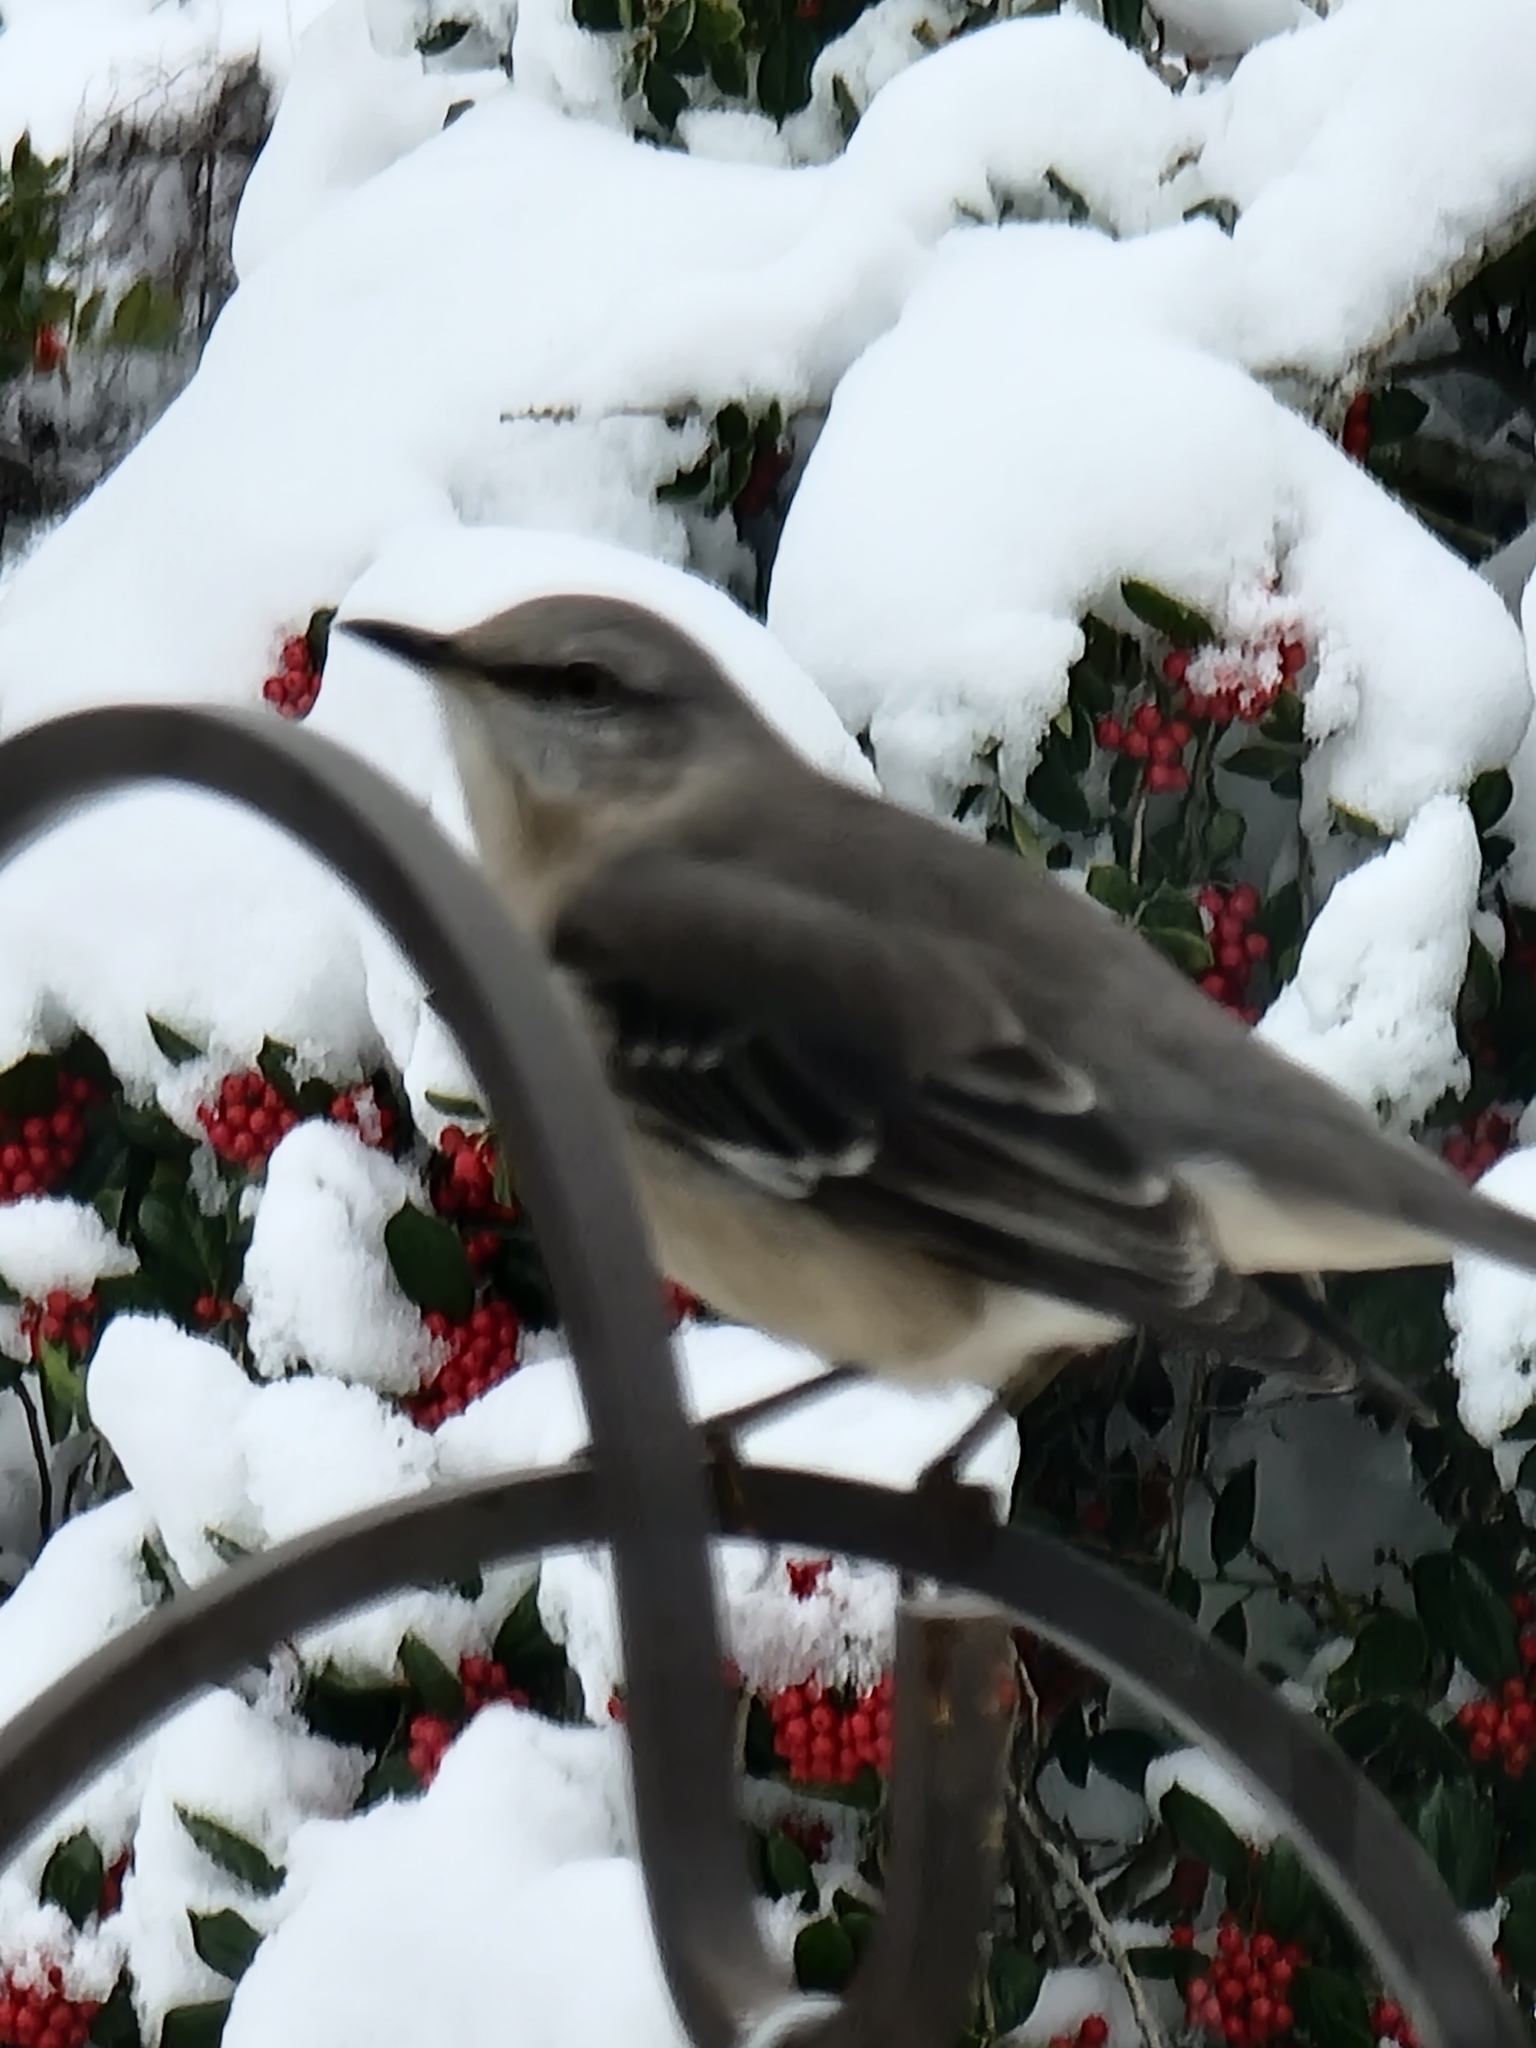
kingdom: Animalia
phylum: Chordata
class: Aves
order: Passeriformes
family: Mimidae
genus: Mimus
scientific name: Mimus polyglottos
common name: Northern mockingbird
